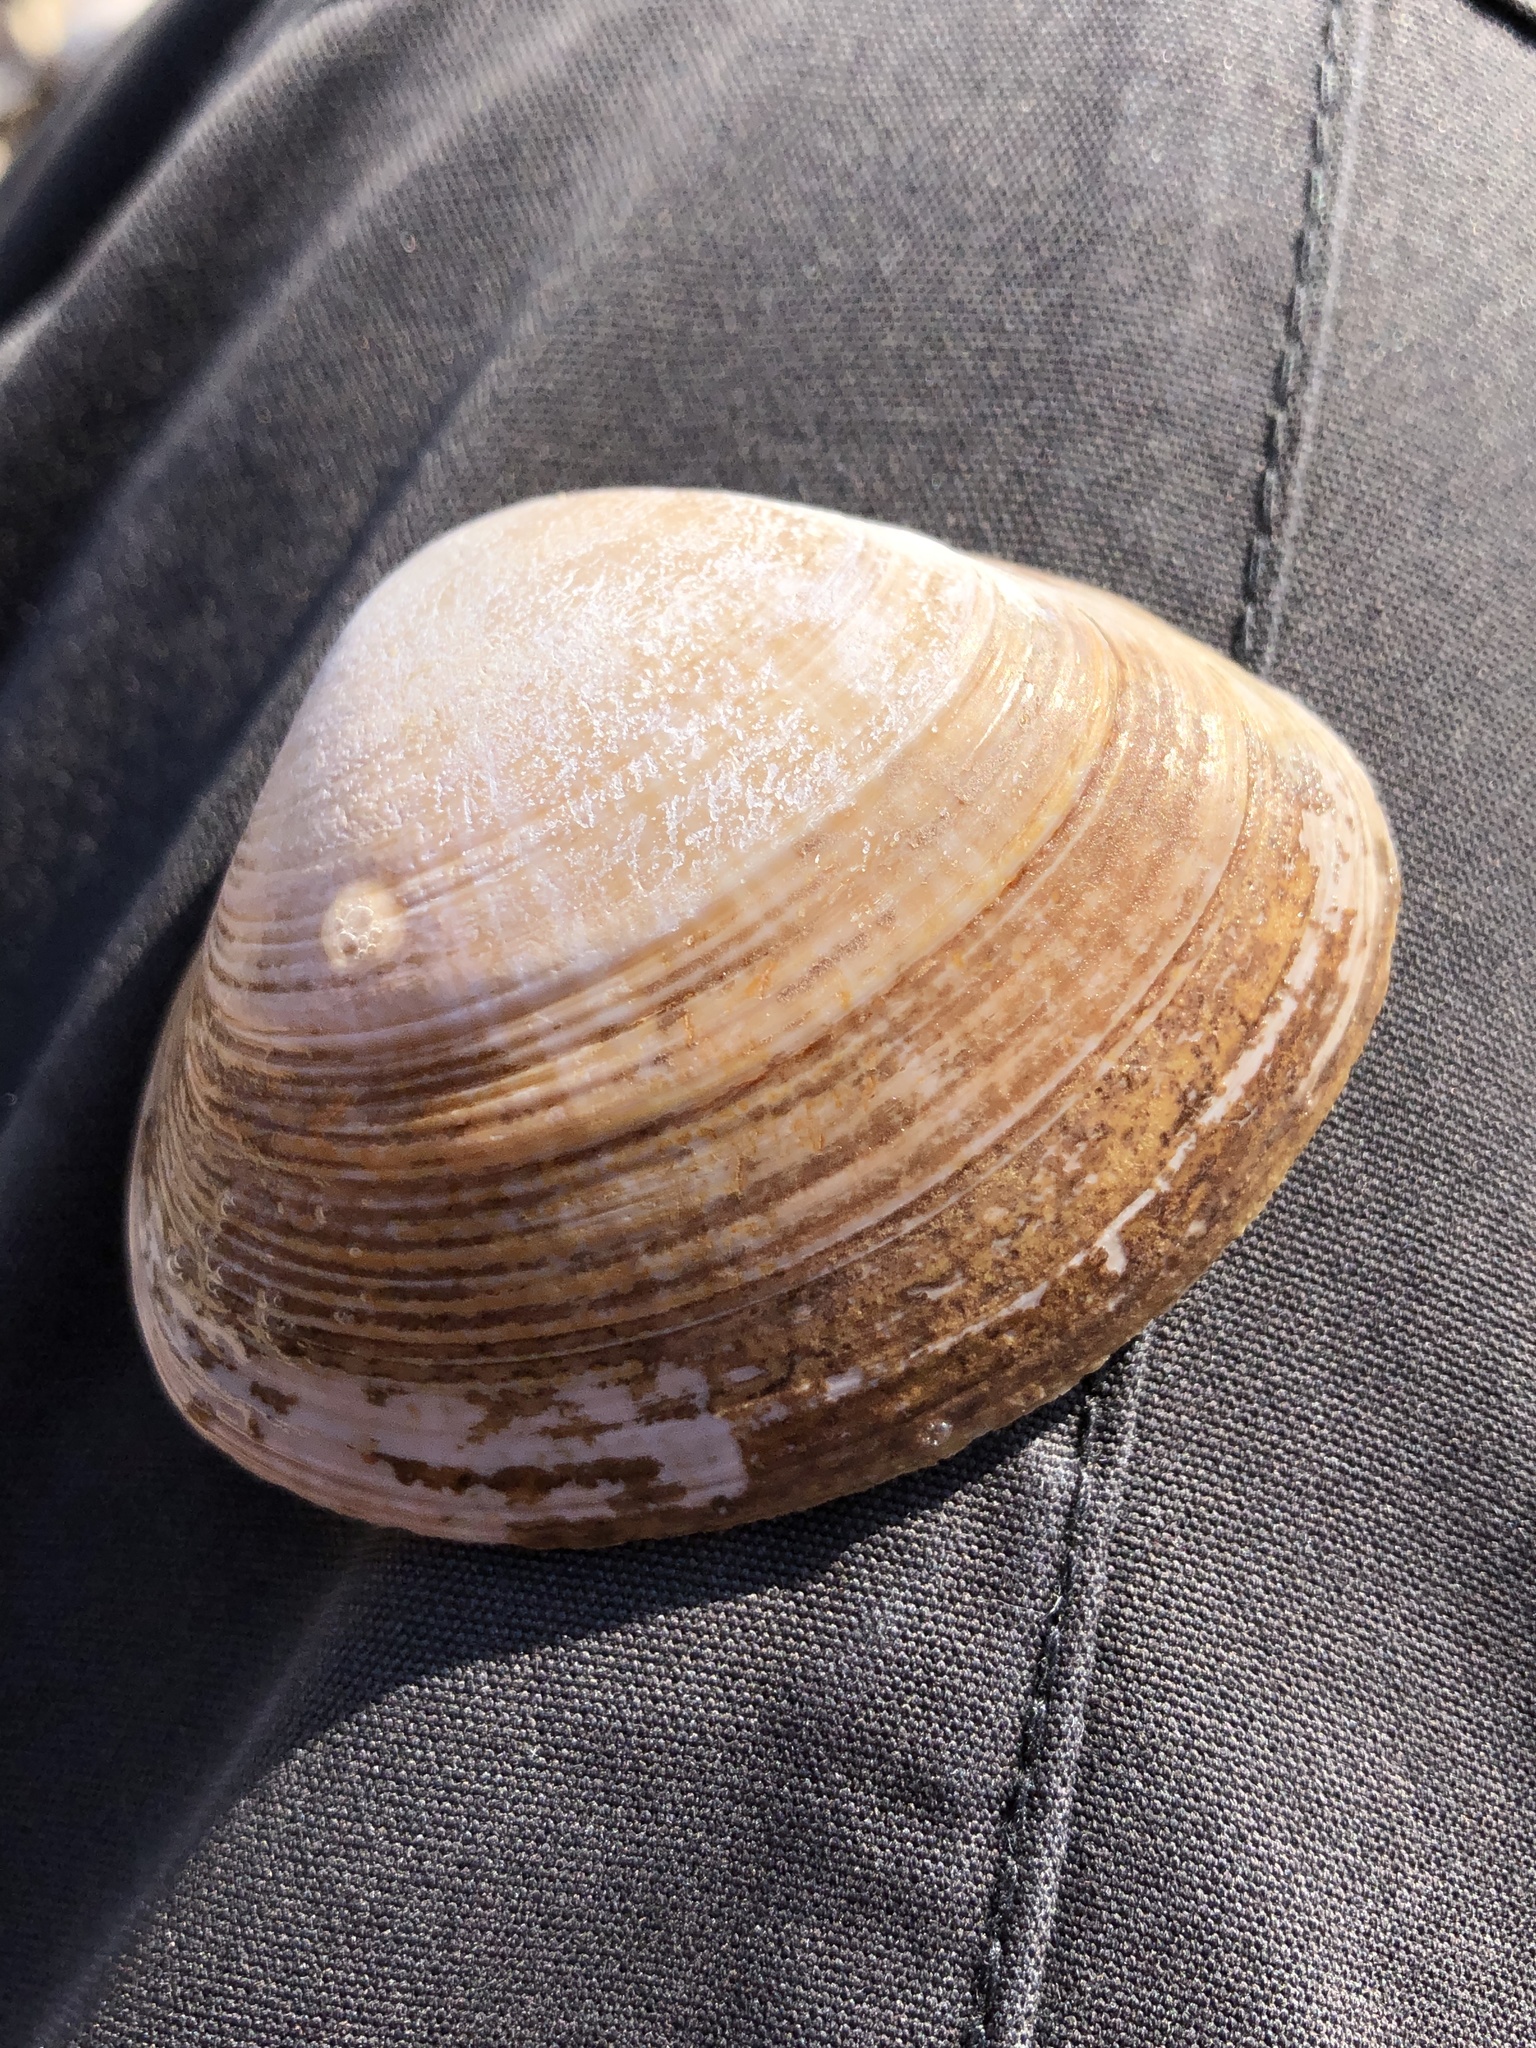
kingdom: Animalia
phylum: Mollusca
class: Bivalvia
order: Venerida
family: Mactridae
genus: Mactra
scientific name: Mactra chinensis
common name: Chinese surf clam
